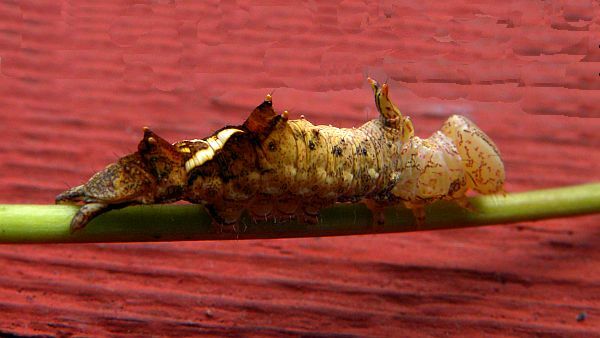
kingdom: Animalia
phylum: Arthropoda
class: Insecta
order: Lepidoptera
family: Notodontidae
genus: Schizura
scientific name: Schizura ipomaeae
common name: Morning-glory prominent
